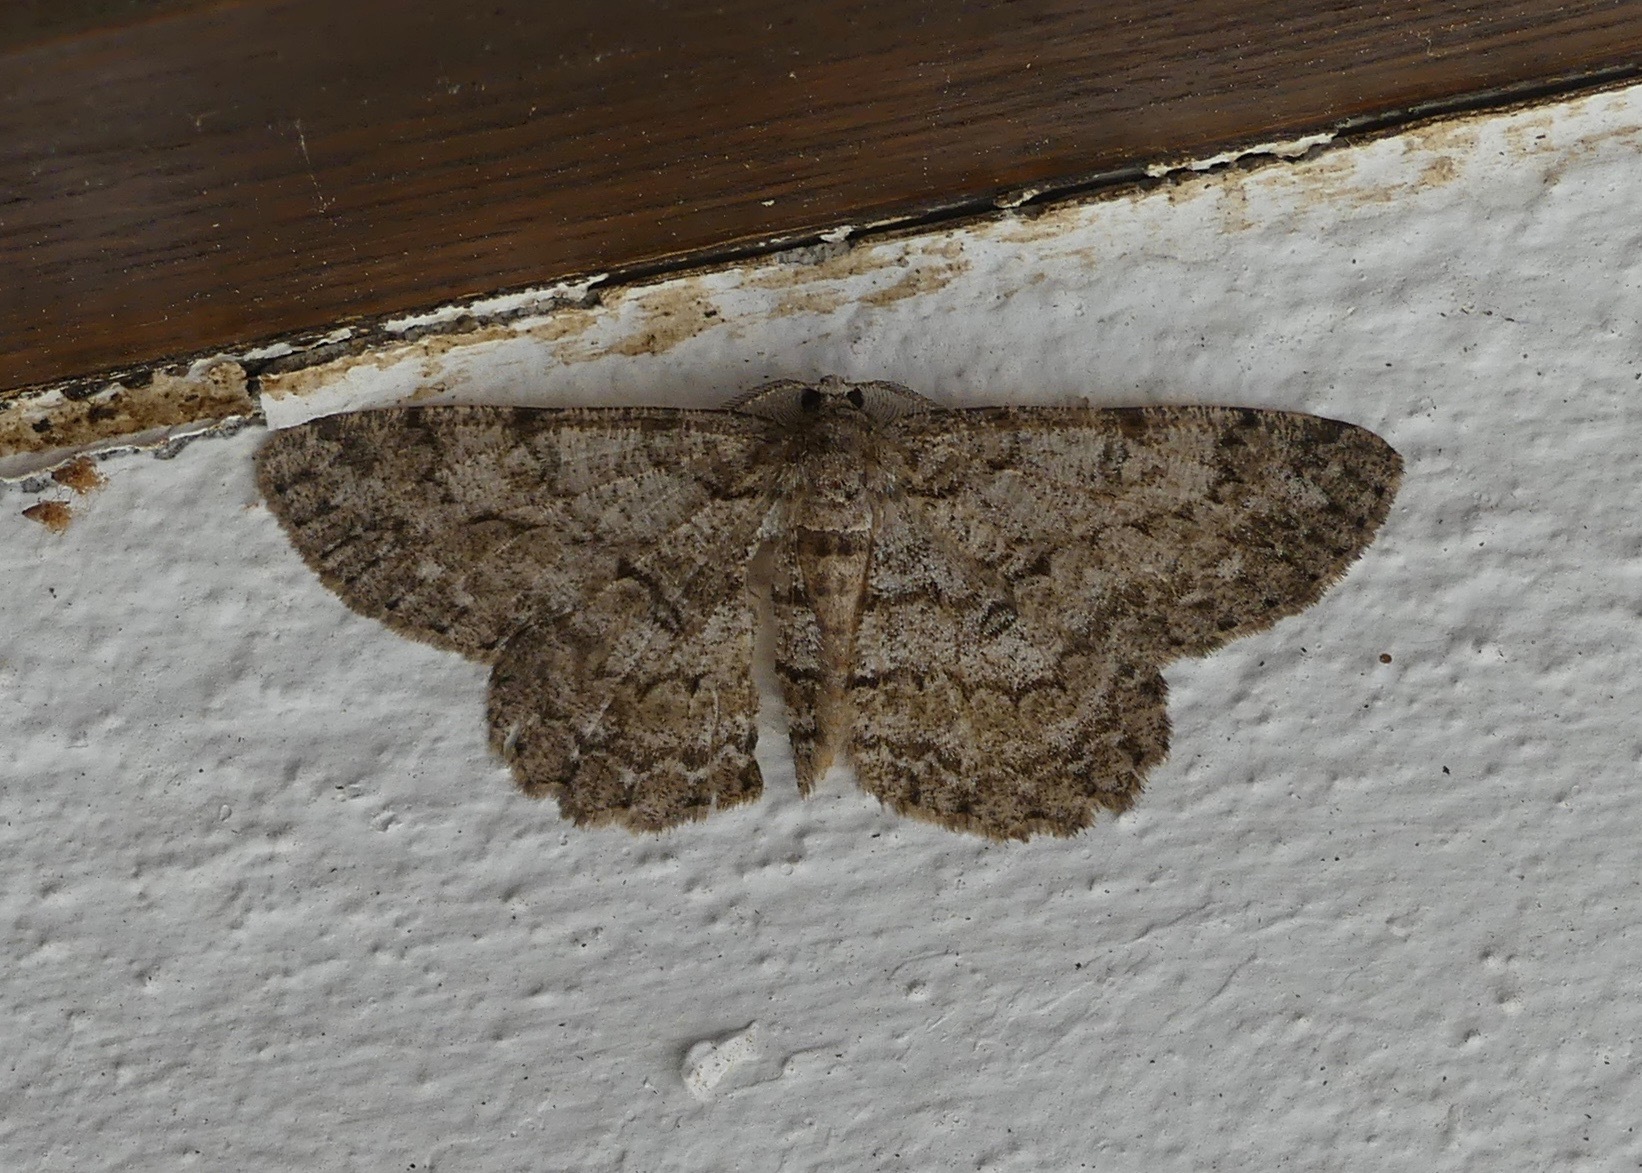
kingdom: Animalia
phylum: Arthropoda
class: Insecta
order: Lepidoptera
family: Geometridae
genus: Hypomecis
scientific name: Hypomecis punctinalis
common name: Pale oak beauty
